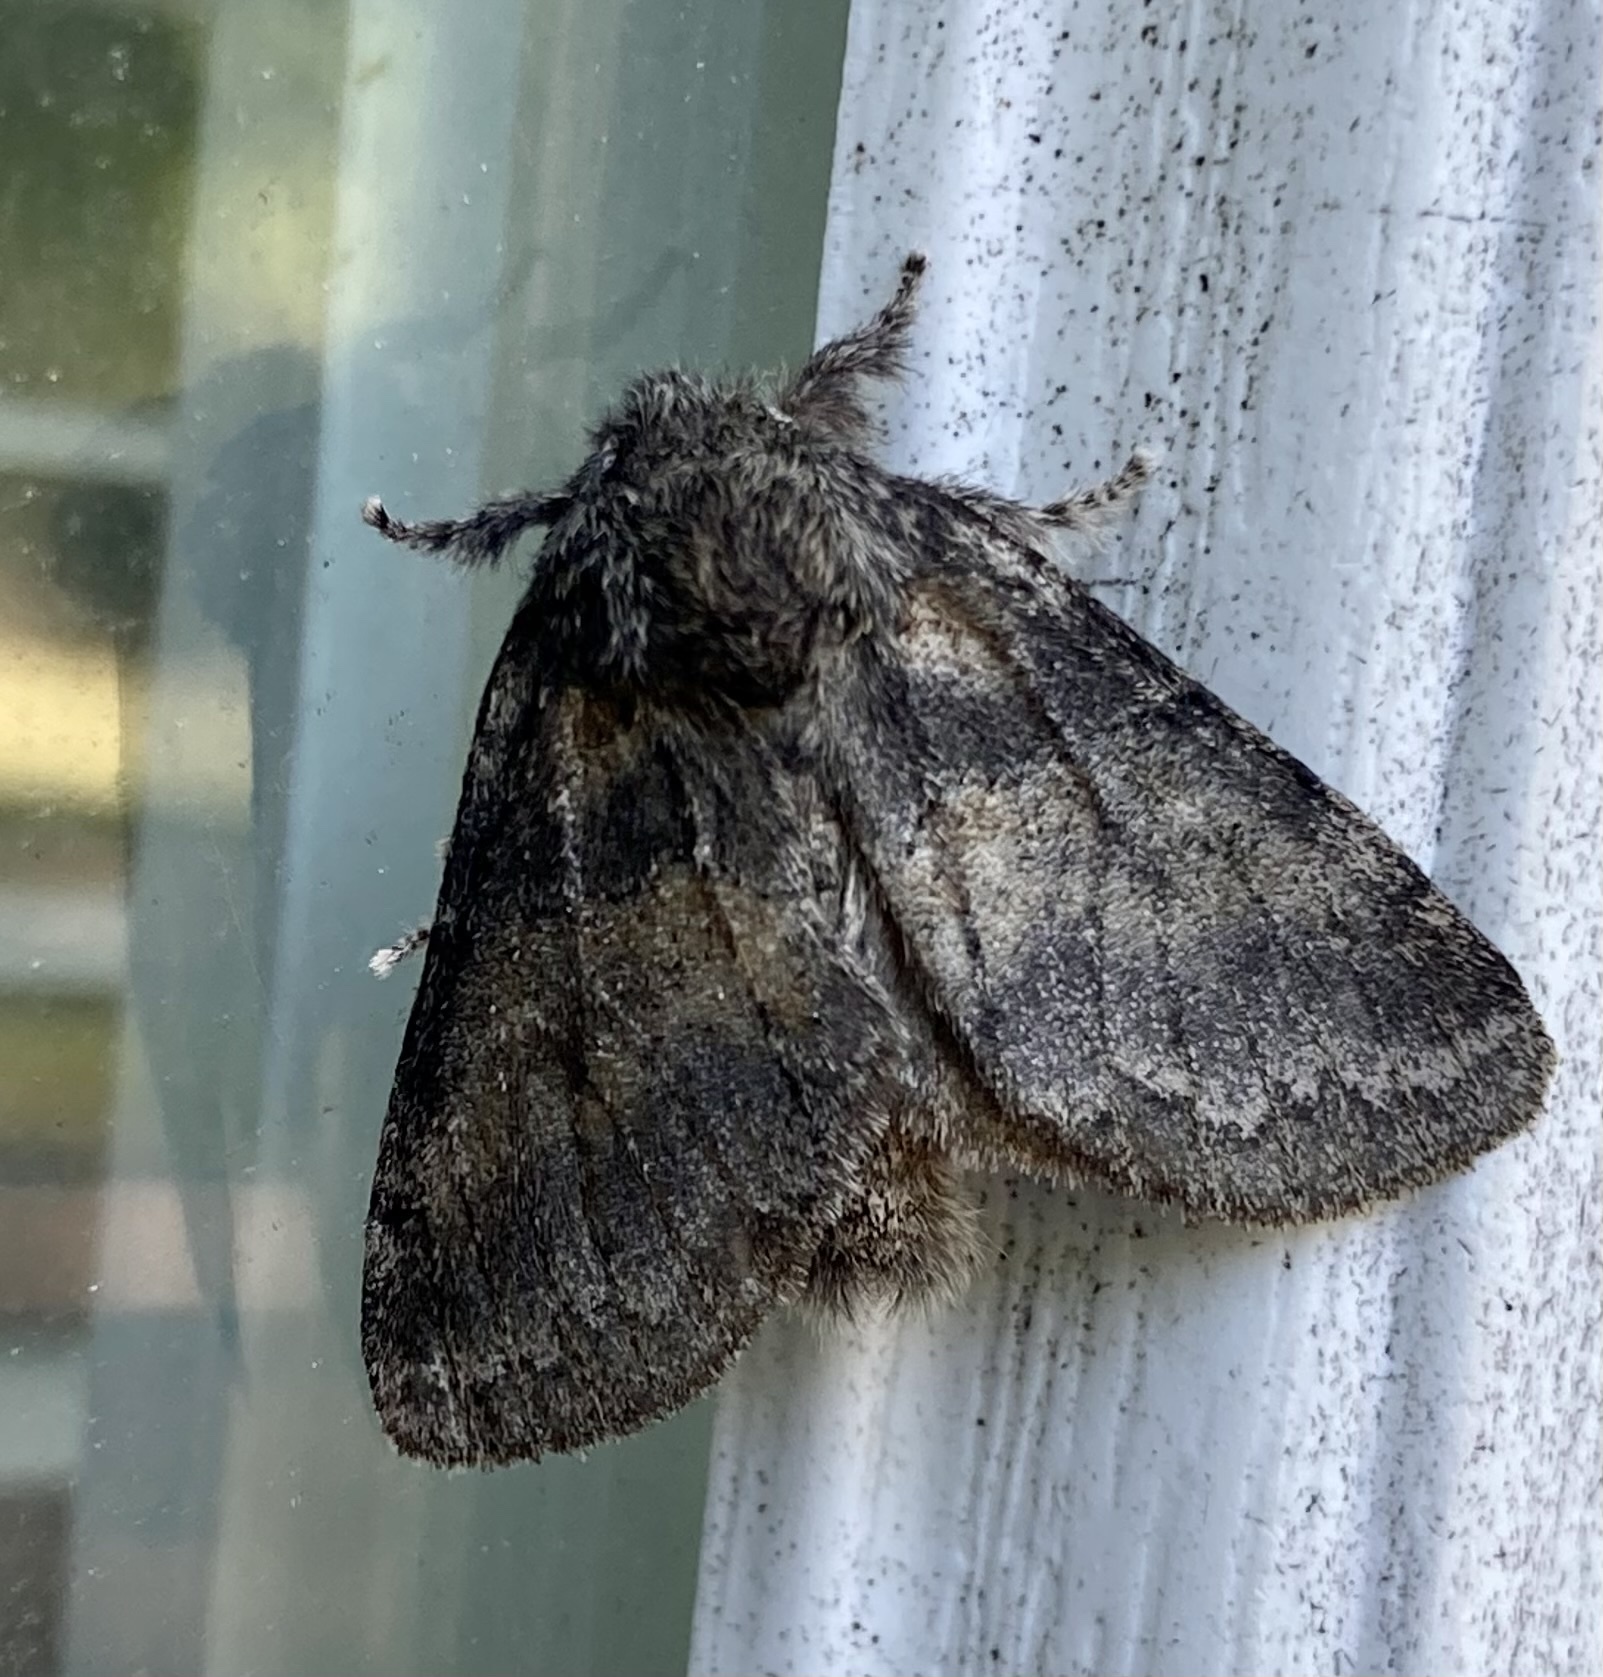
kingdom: Animalia
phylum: Arthropoda
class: Insecta
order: Lepidoptera
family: Notodontidae
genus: Gluphisia
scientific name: Gluphisia septentrionis
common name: Common gluphisia
